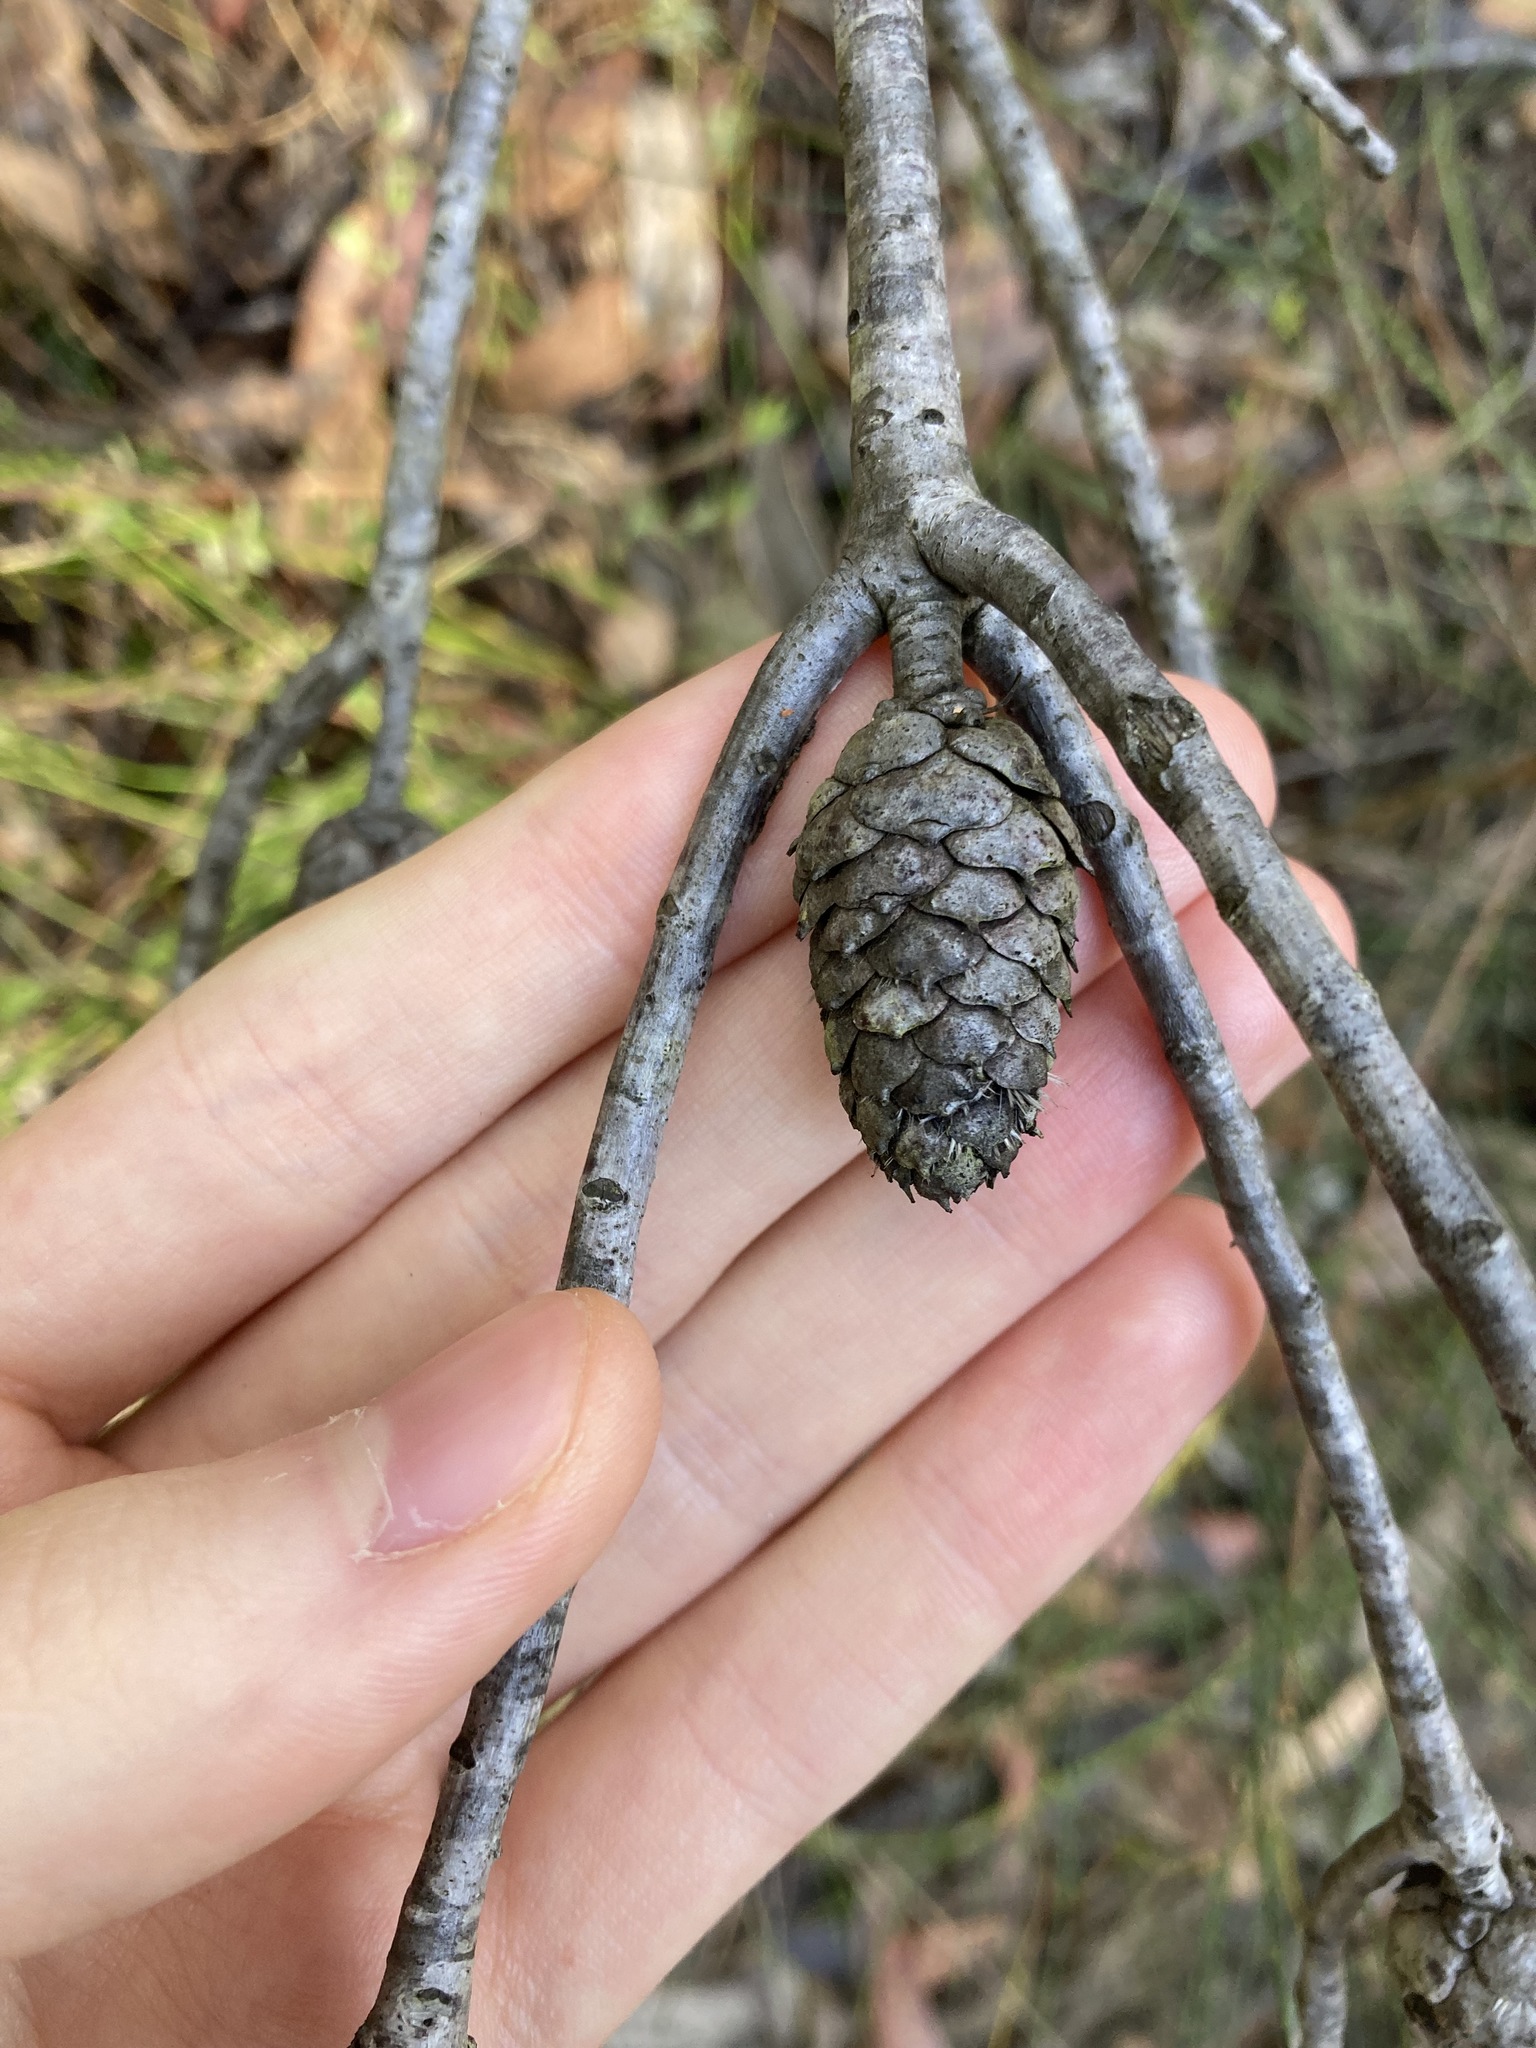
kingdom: Plantae
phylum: Tracheophyta
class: Magnoliopsida
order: Proteales
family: Proteaceae
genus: Petrophile
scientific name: Petrophile pulchella
